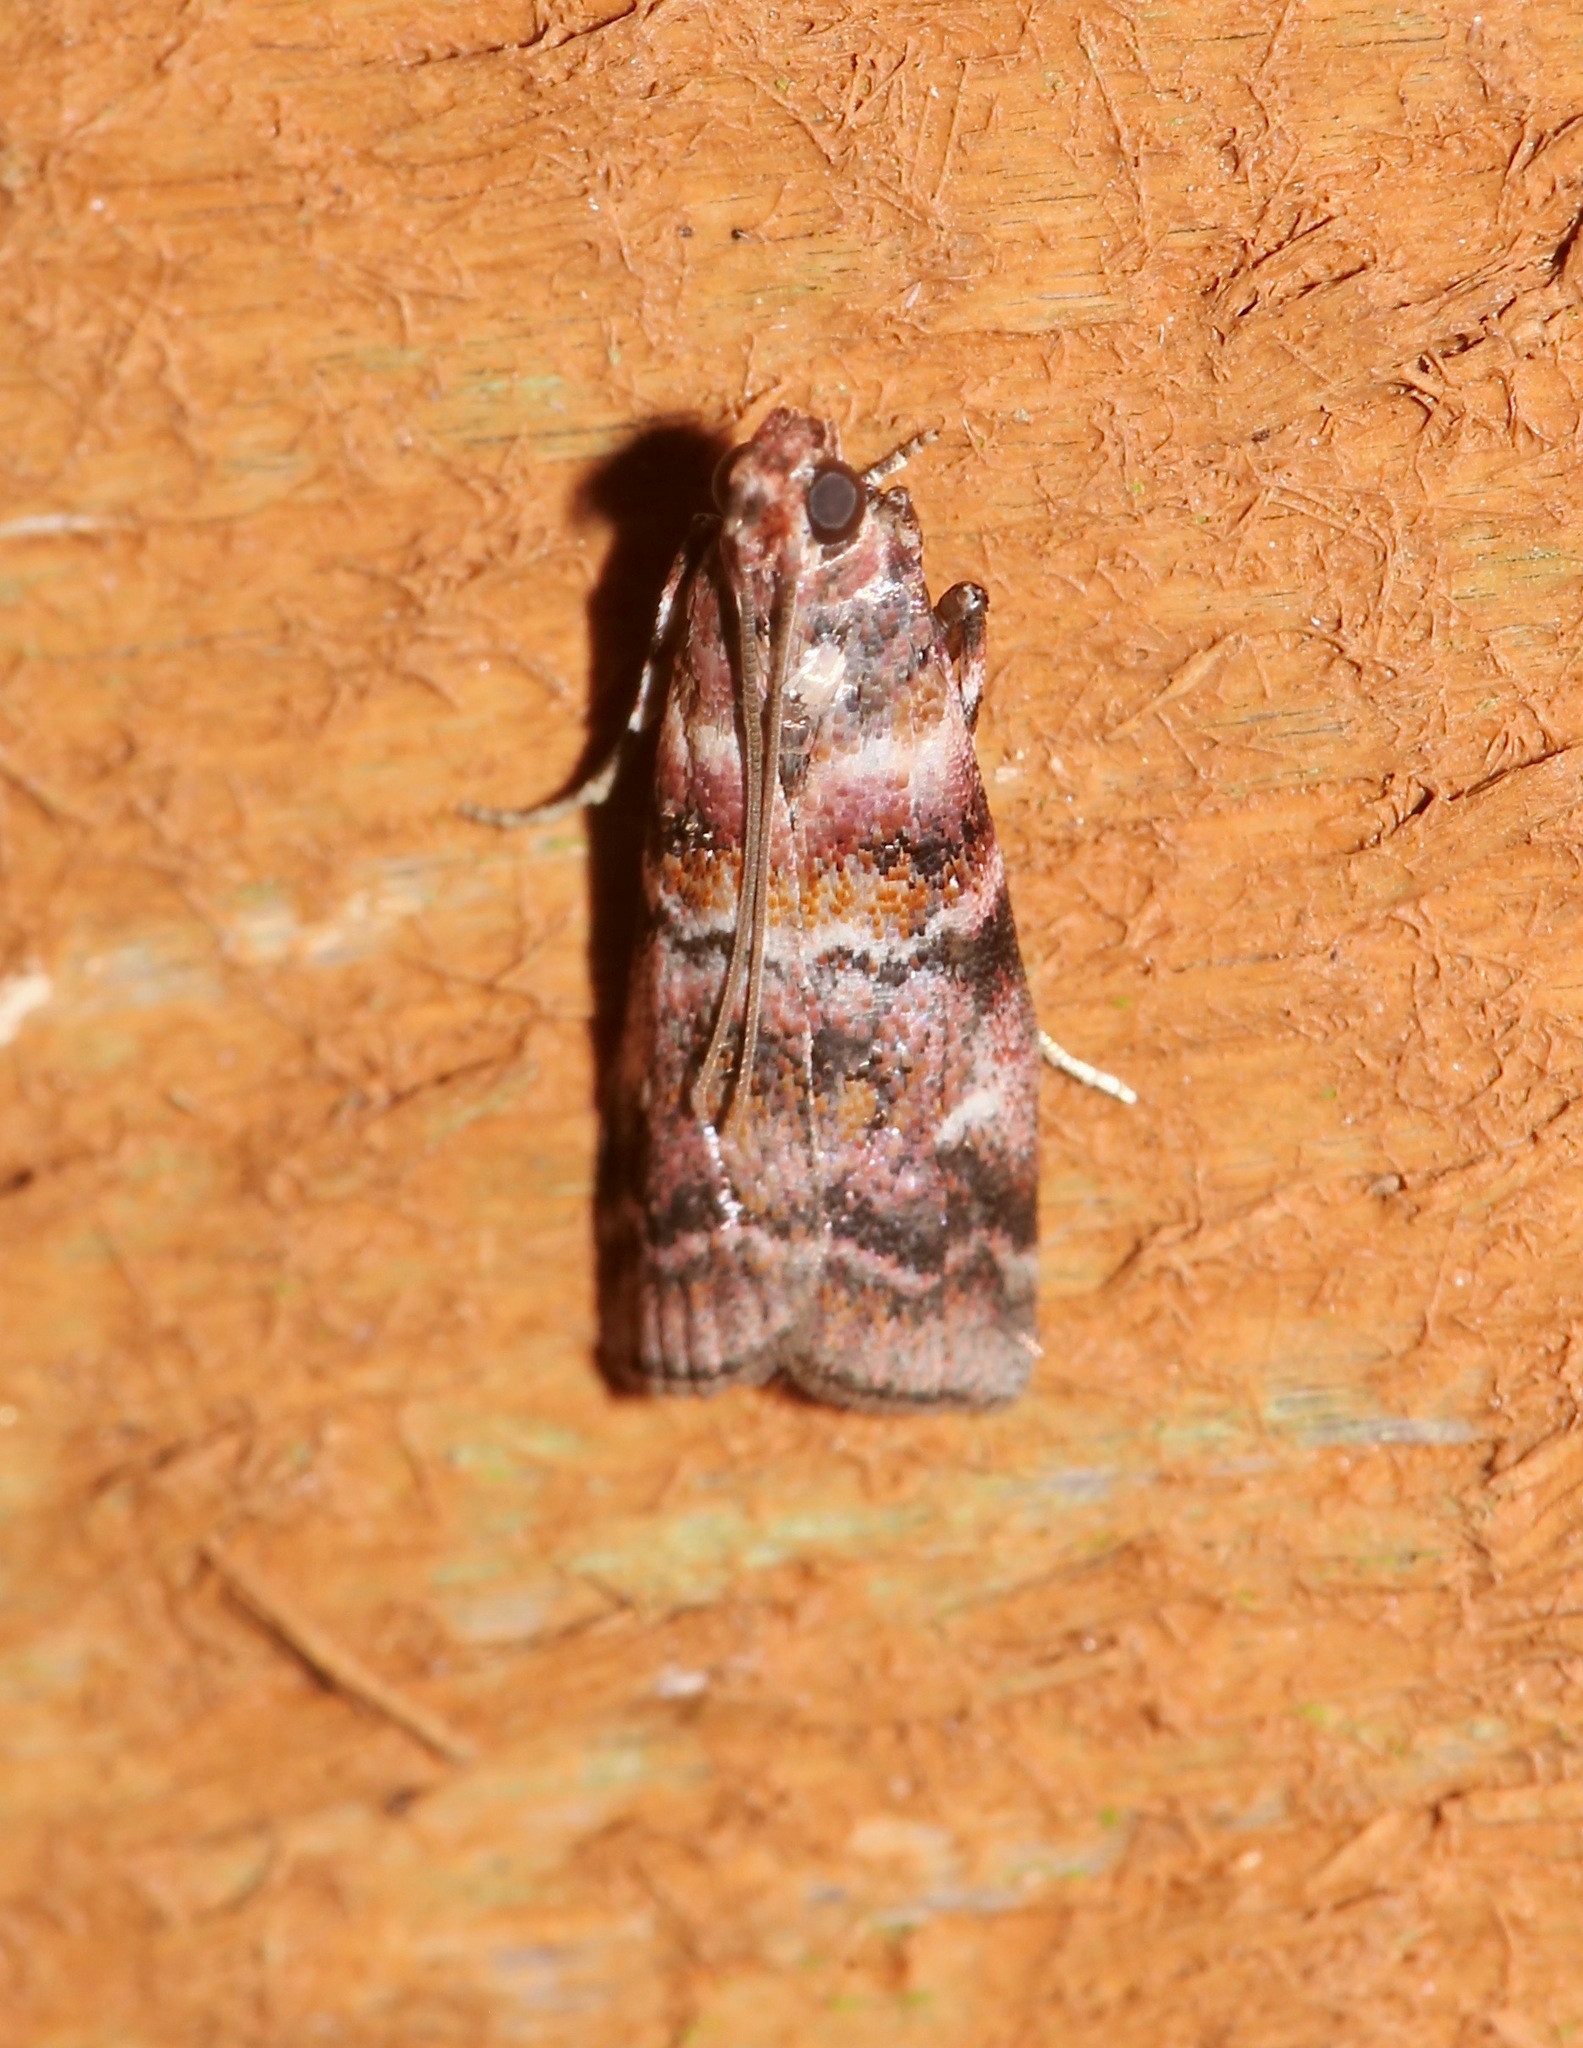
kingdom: Animalia
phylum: Arthropoda
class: Insecta
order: Lepidoptera
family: Pyralidae
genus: Dioryctria
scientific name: Dioryctria pygmaeella
